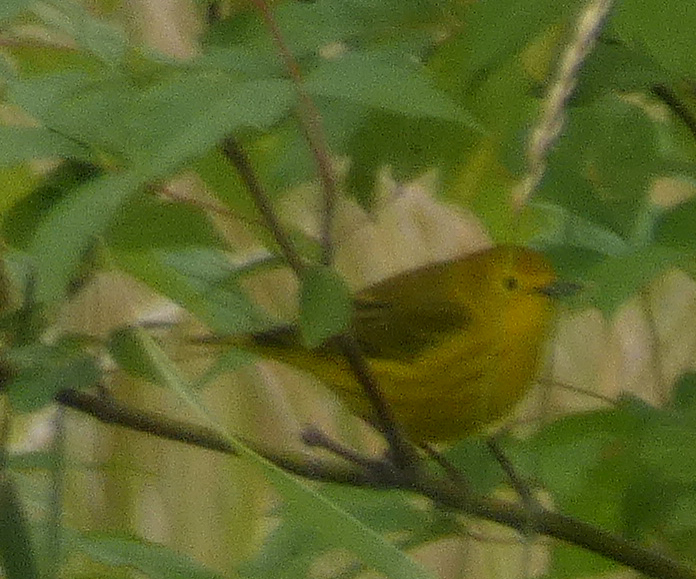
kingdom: Animalia
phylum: Chordata
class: Aves
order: Passeriformes
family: Parulidae
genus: Setophaga
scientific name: Setophaga petechia
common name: Yellow warbler
